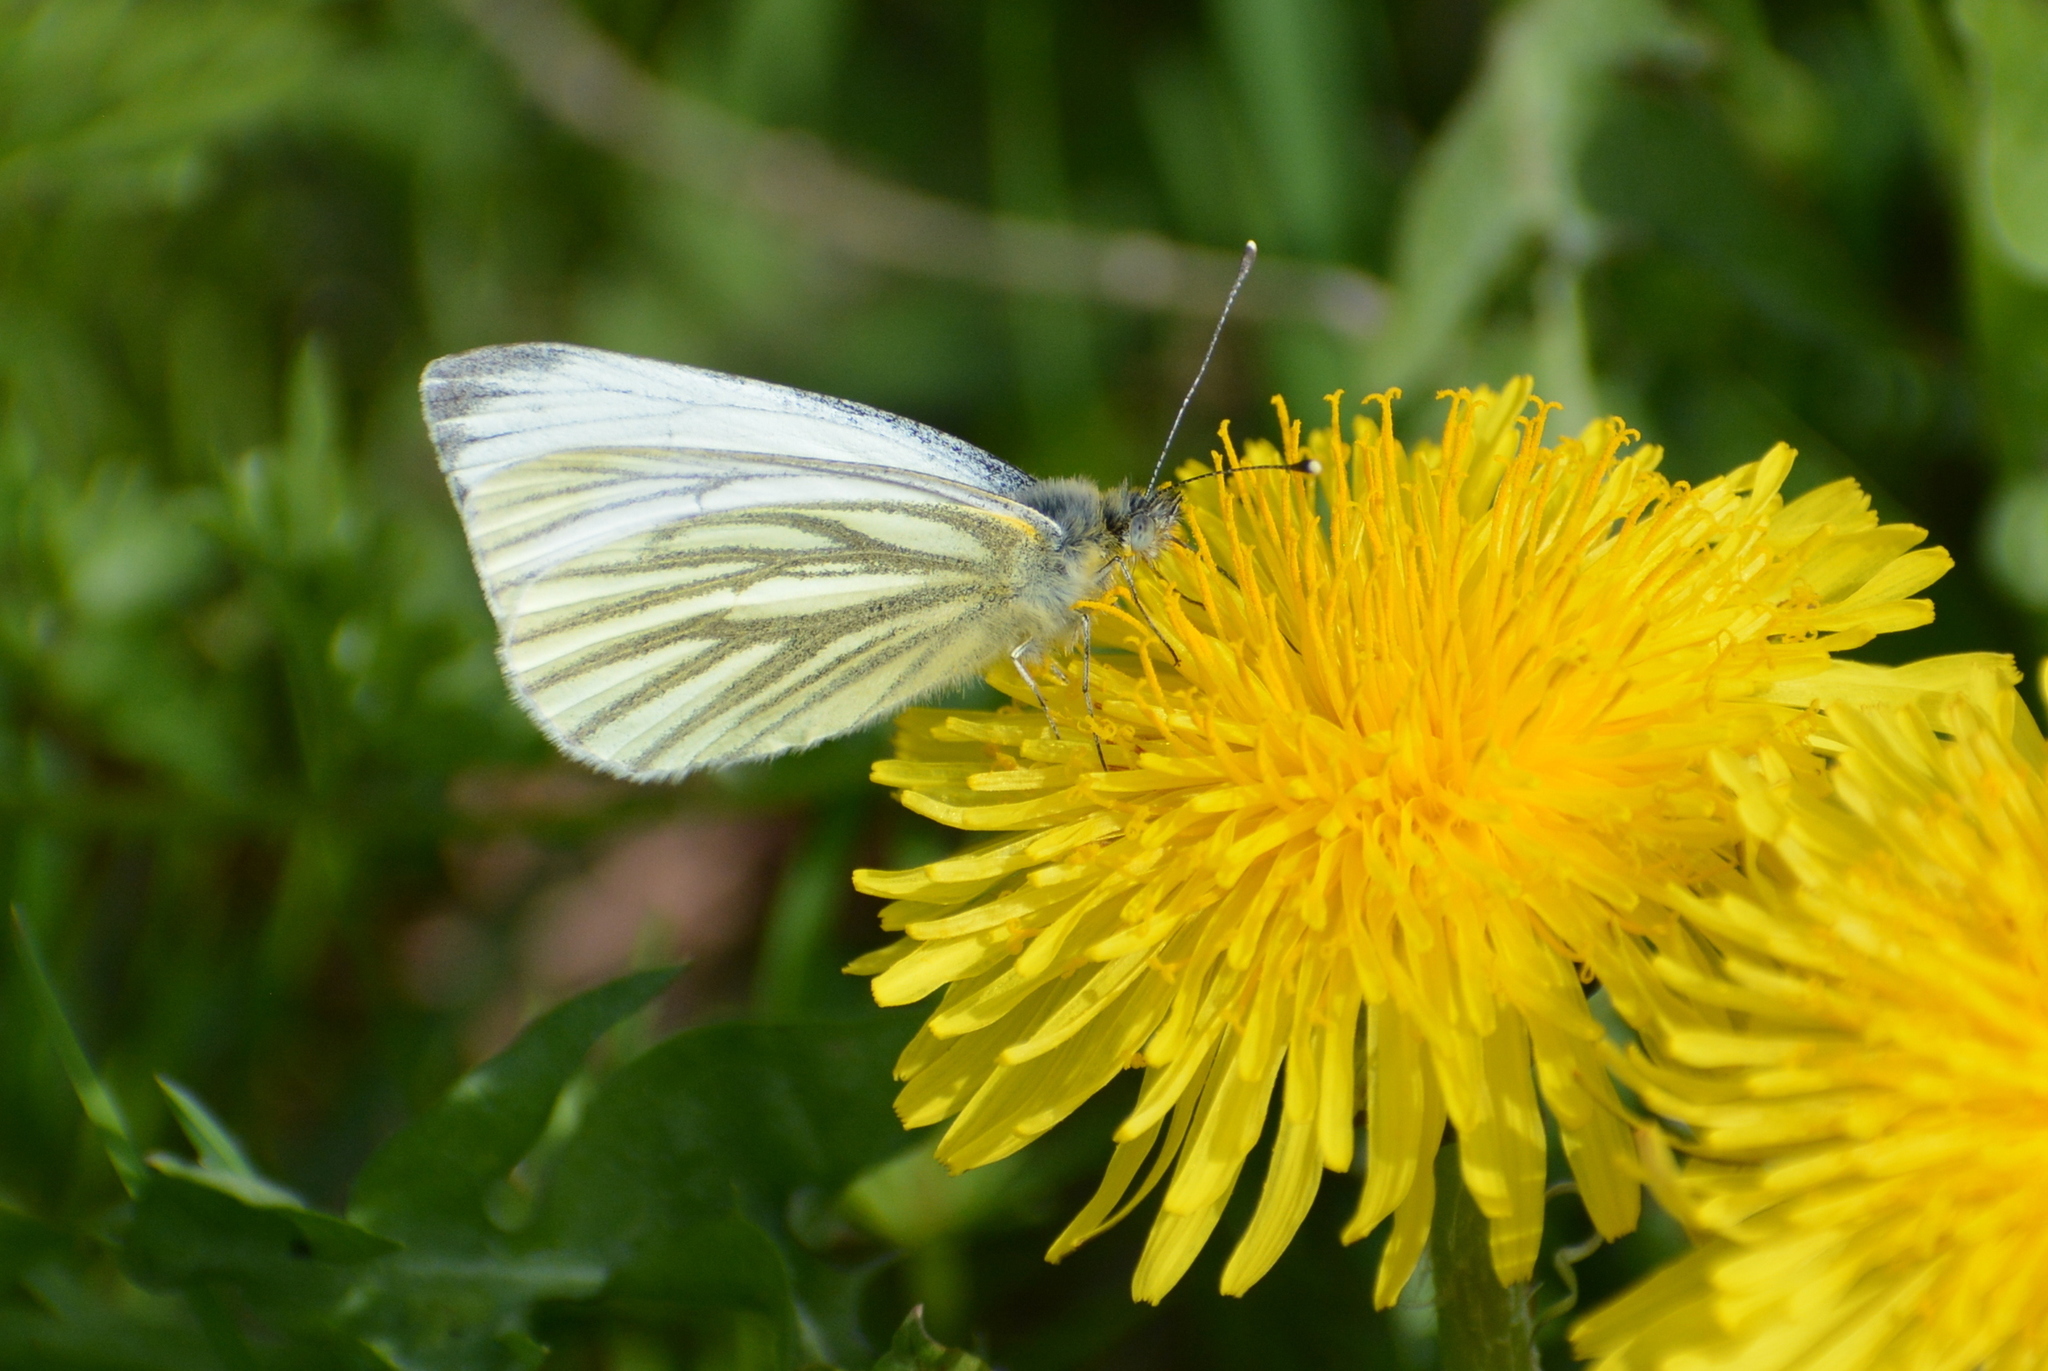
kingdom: Animalia
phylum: Arthropoda
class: Insecta
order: Lepidoptera
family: Pieridae
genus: Pieris
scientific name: Pieris napi
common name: Green-veined white
